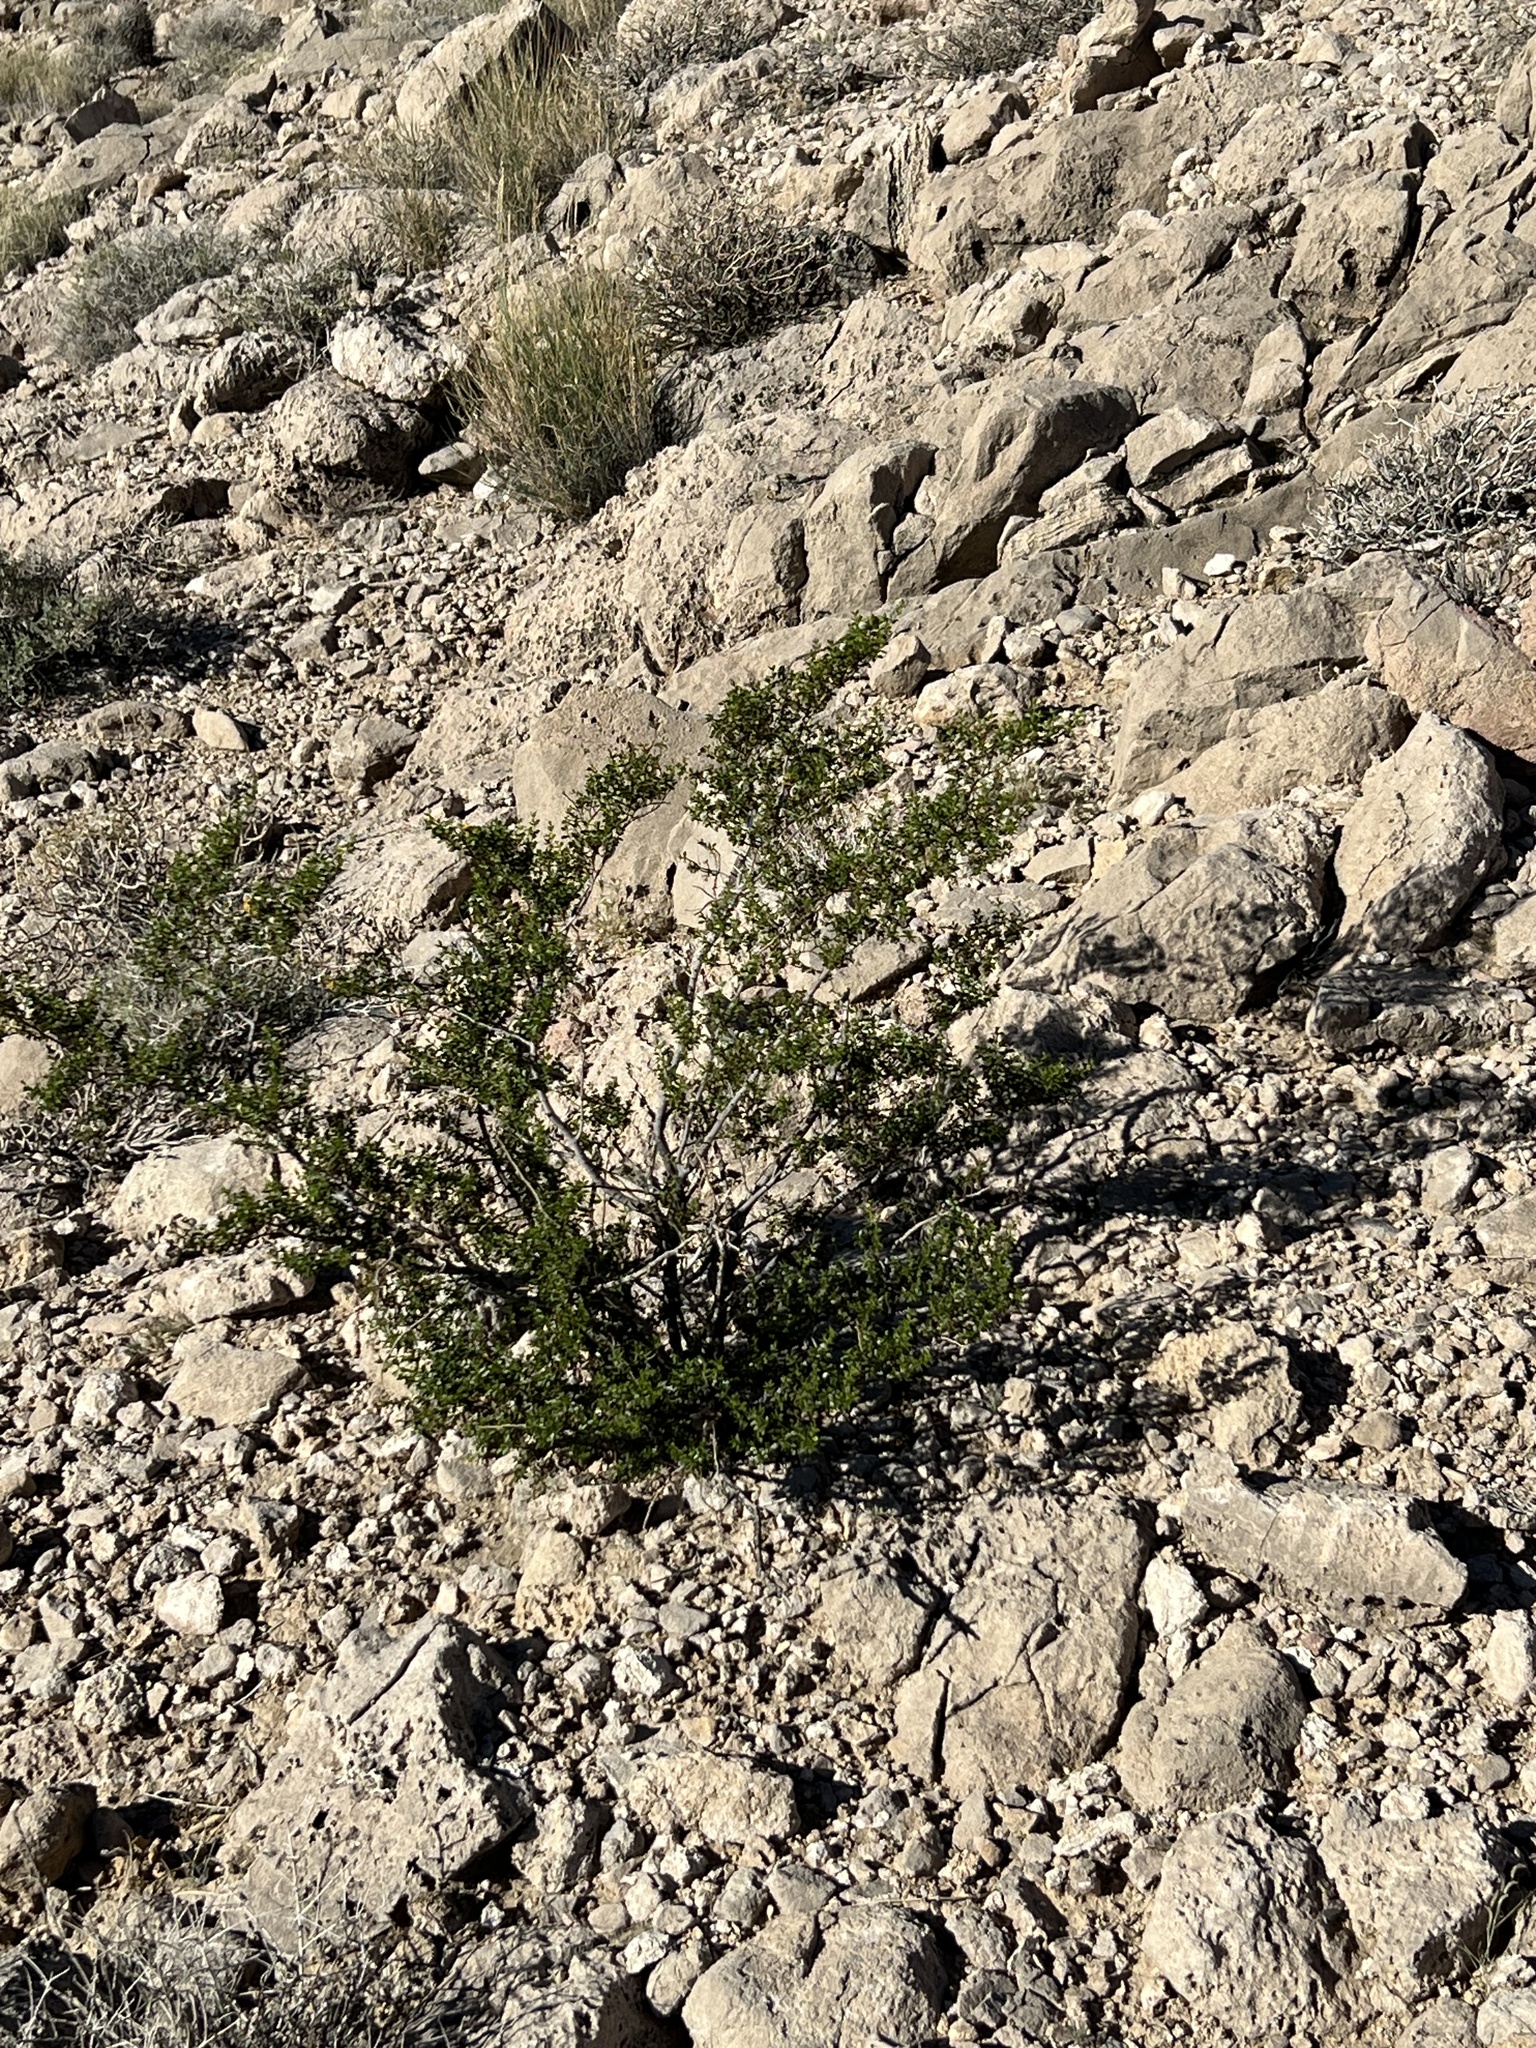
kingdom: Plantae
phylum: Tracheophyta
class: Magnoliopsida
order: Zygophyllales
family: Zygophyllaceae
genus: Larrea
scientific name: Larrea tridentata
